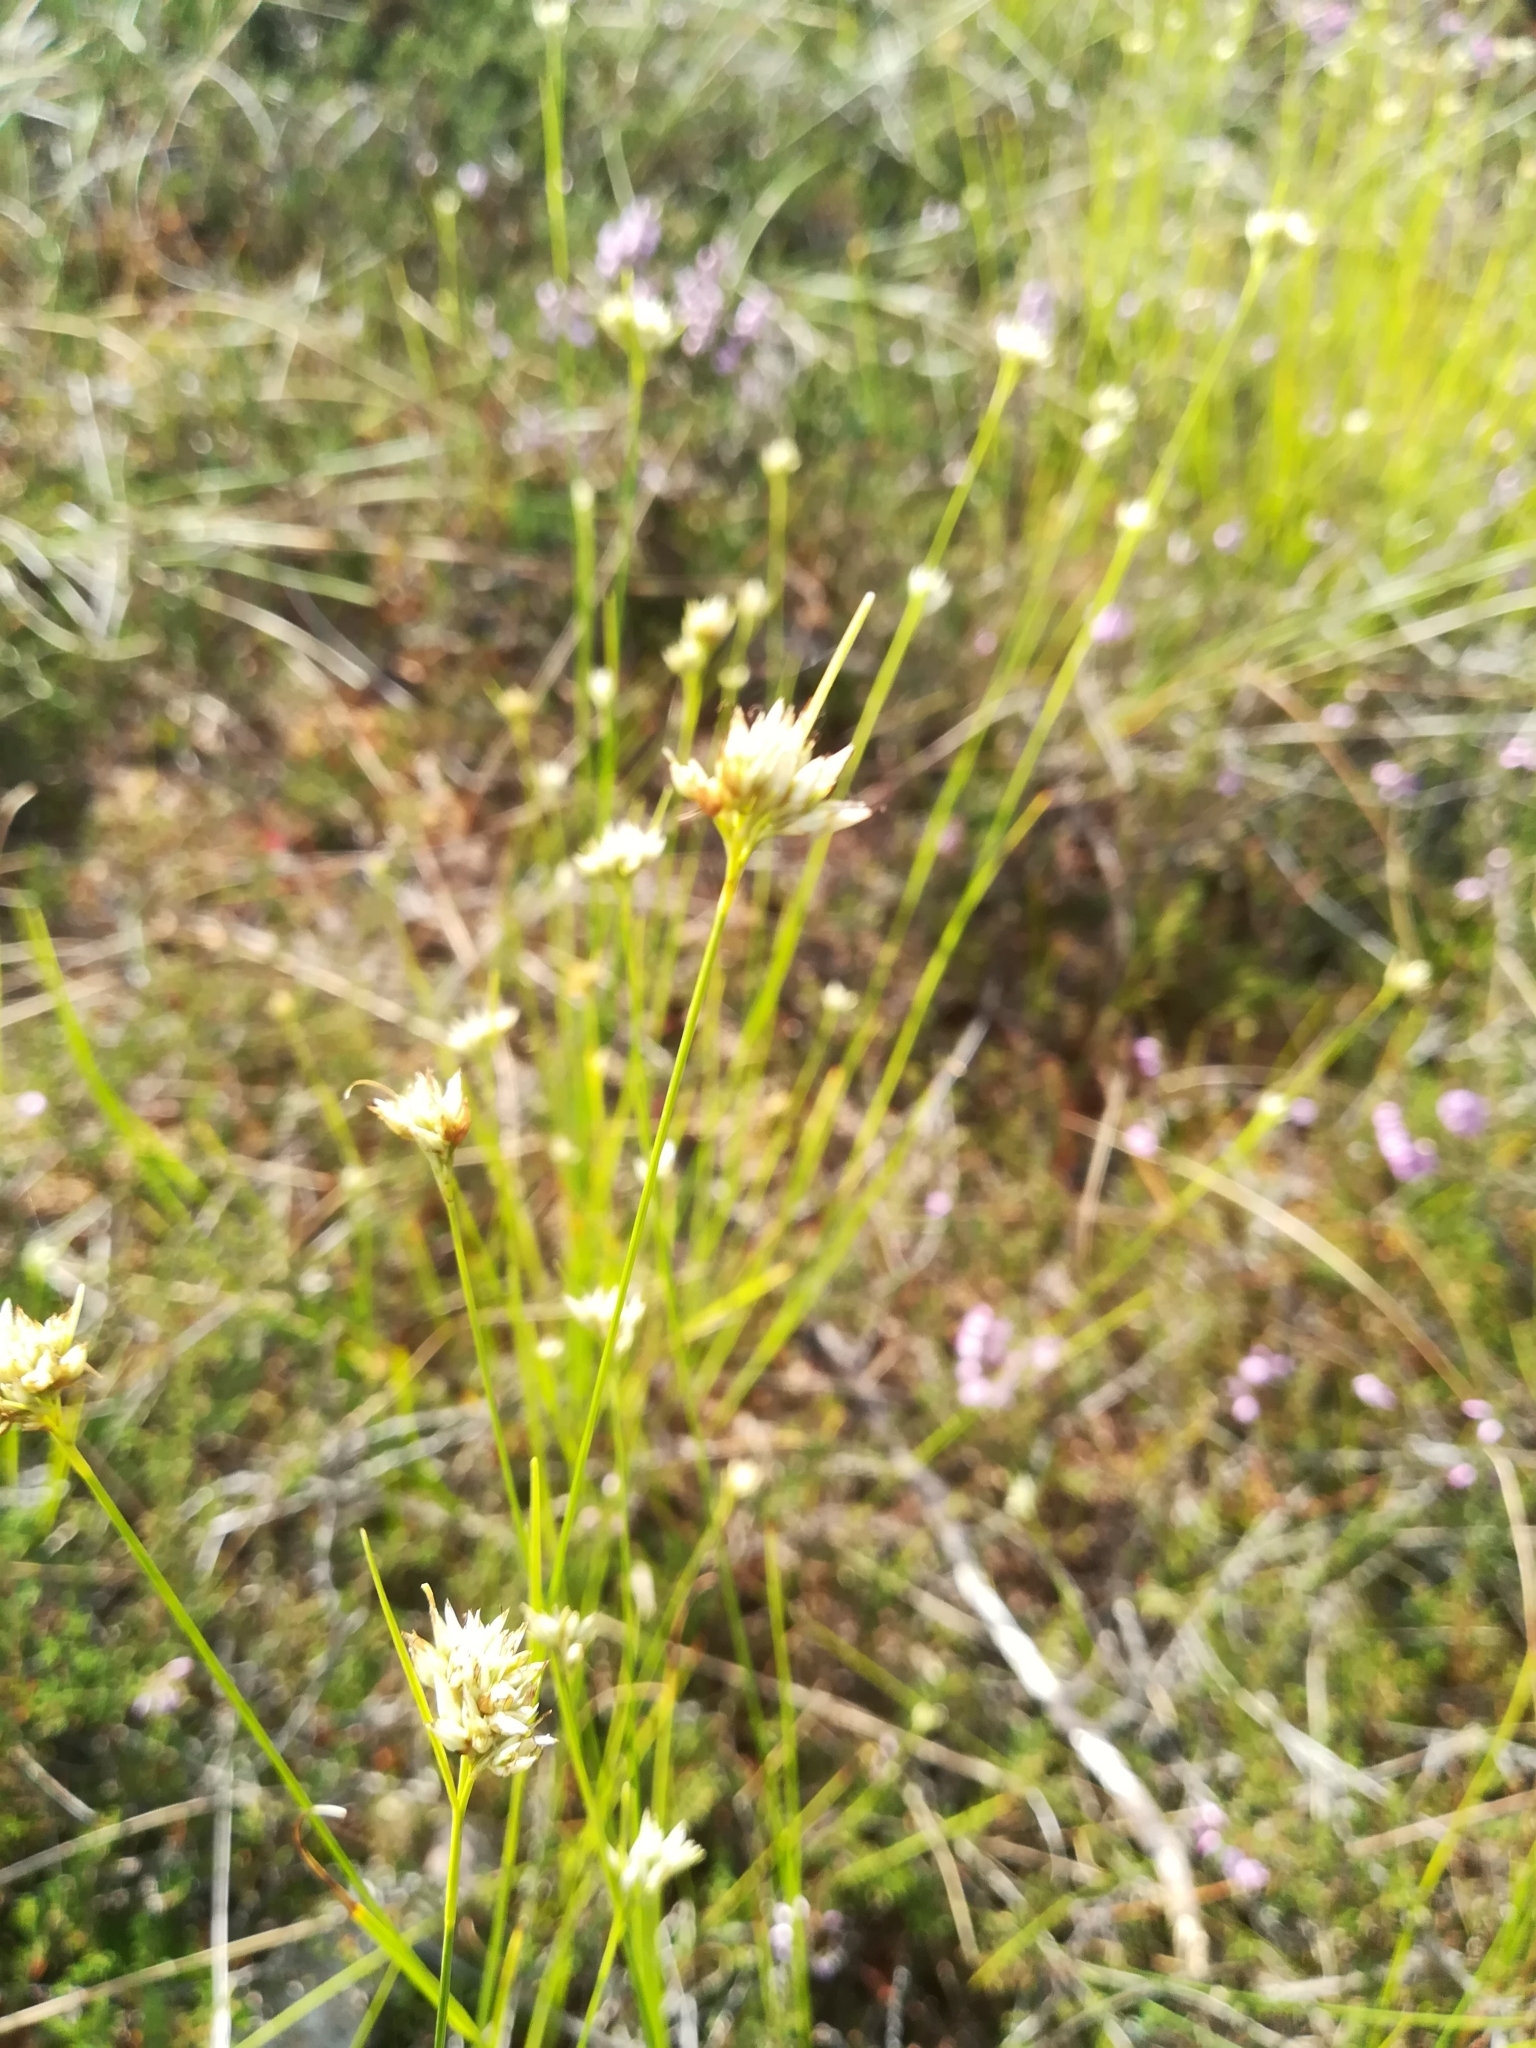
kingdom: Plantae
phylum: Tracheophyta
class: Liliopsida
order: Poales
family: Cyperaceae
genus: Rhynchospora
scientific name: Rhynchospora alba
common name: White beak-sedge
